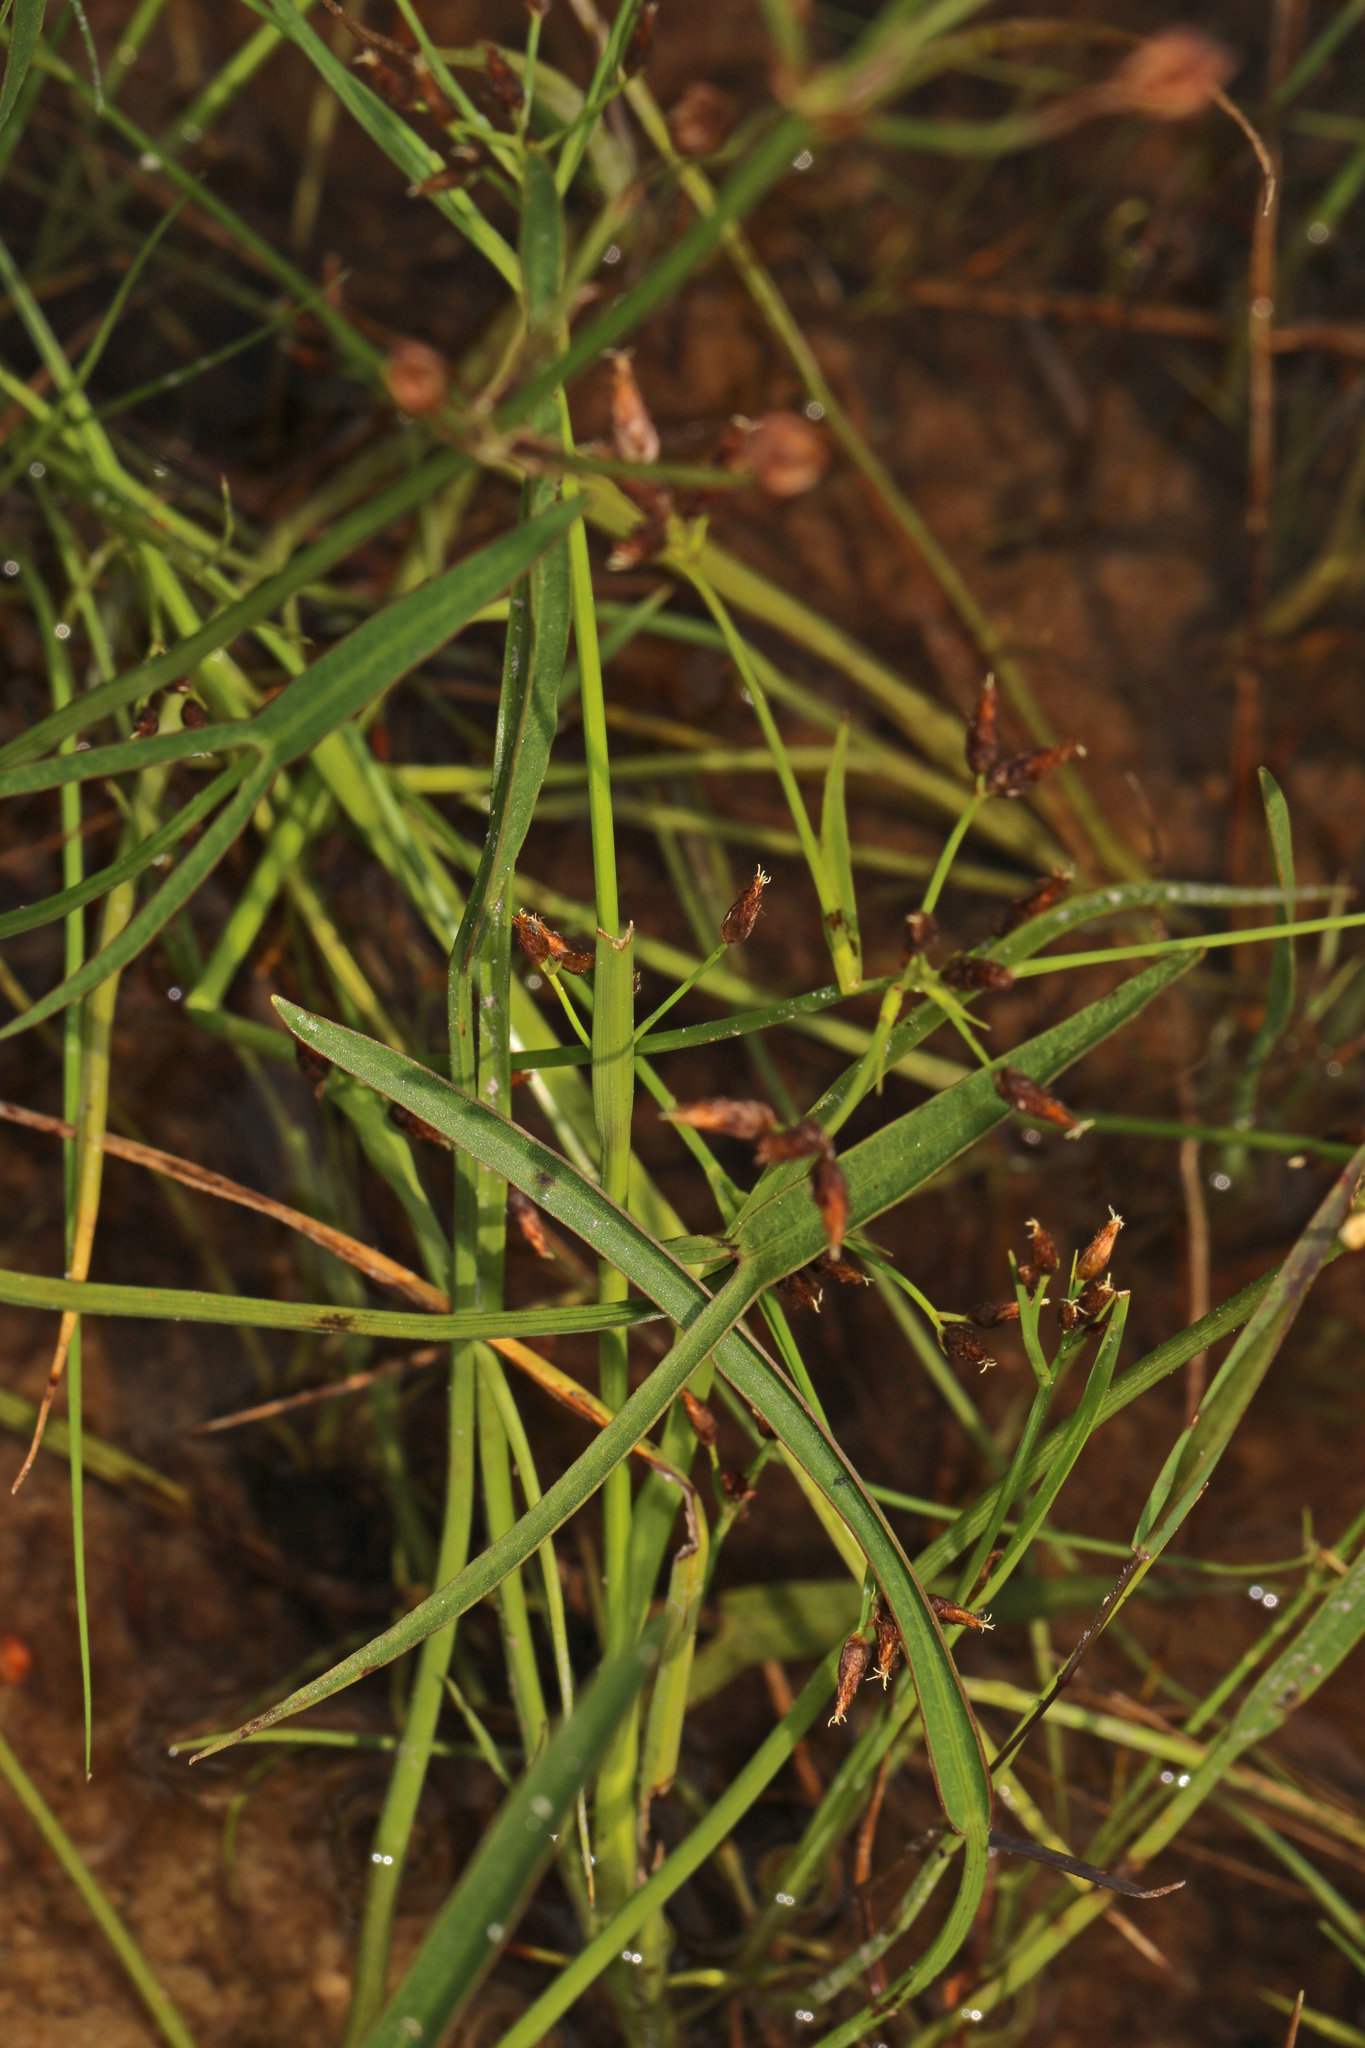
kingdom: Plantae
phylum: Tracheophyta
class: Liliopsida
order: Alismatales
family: Alismataceae
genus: Sagittaria
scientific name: Sagittaria engelmanniana
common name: Acid-water arrowhead
